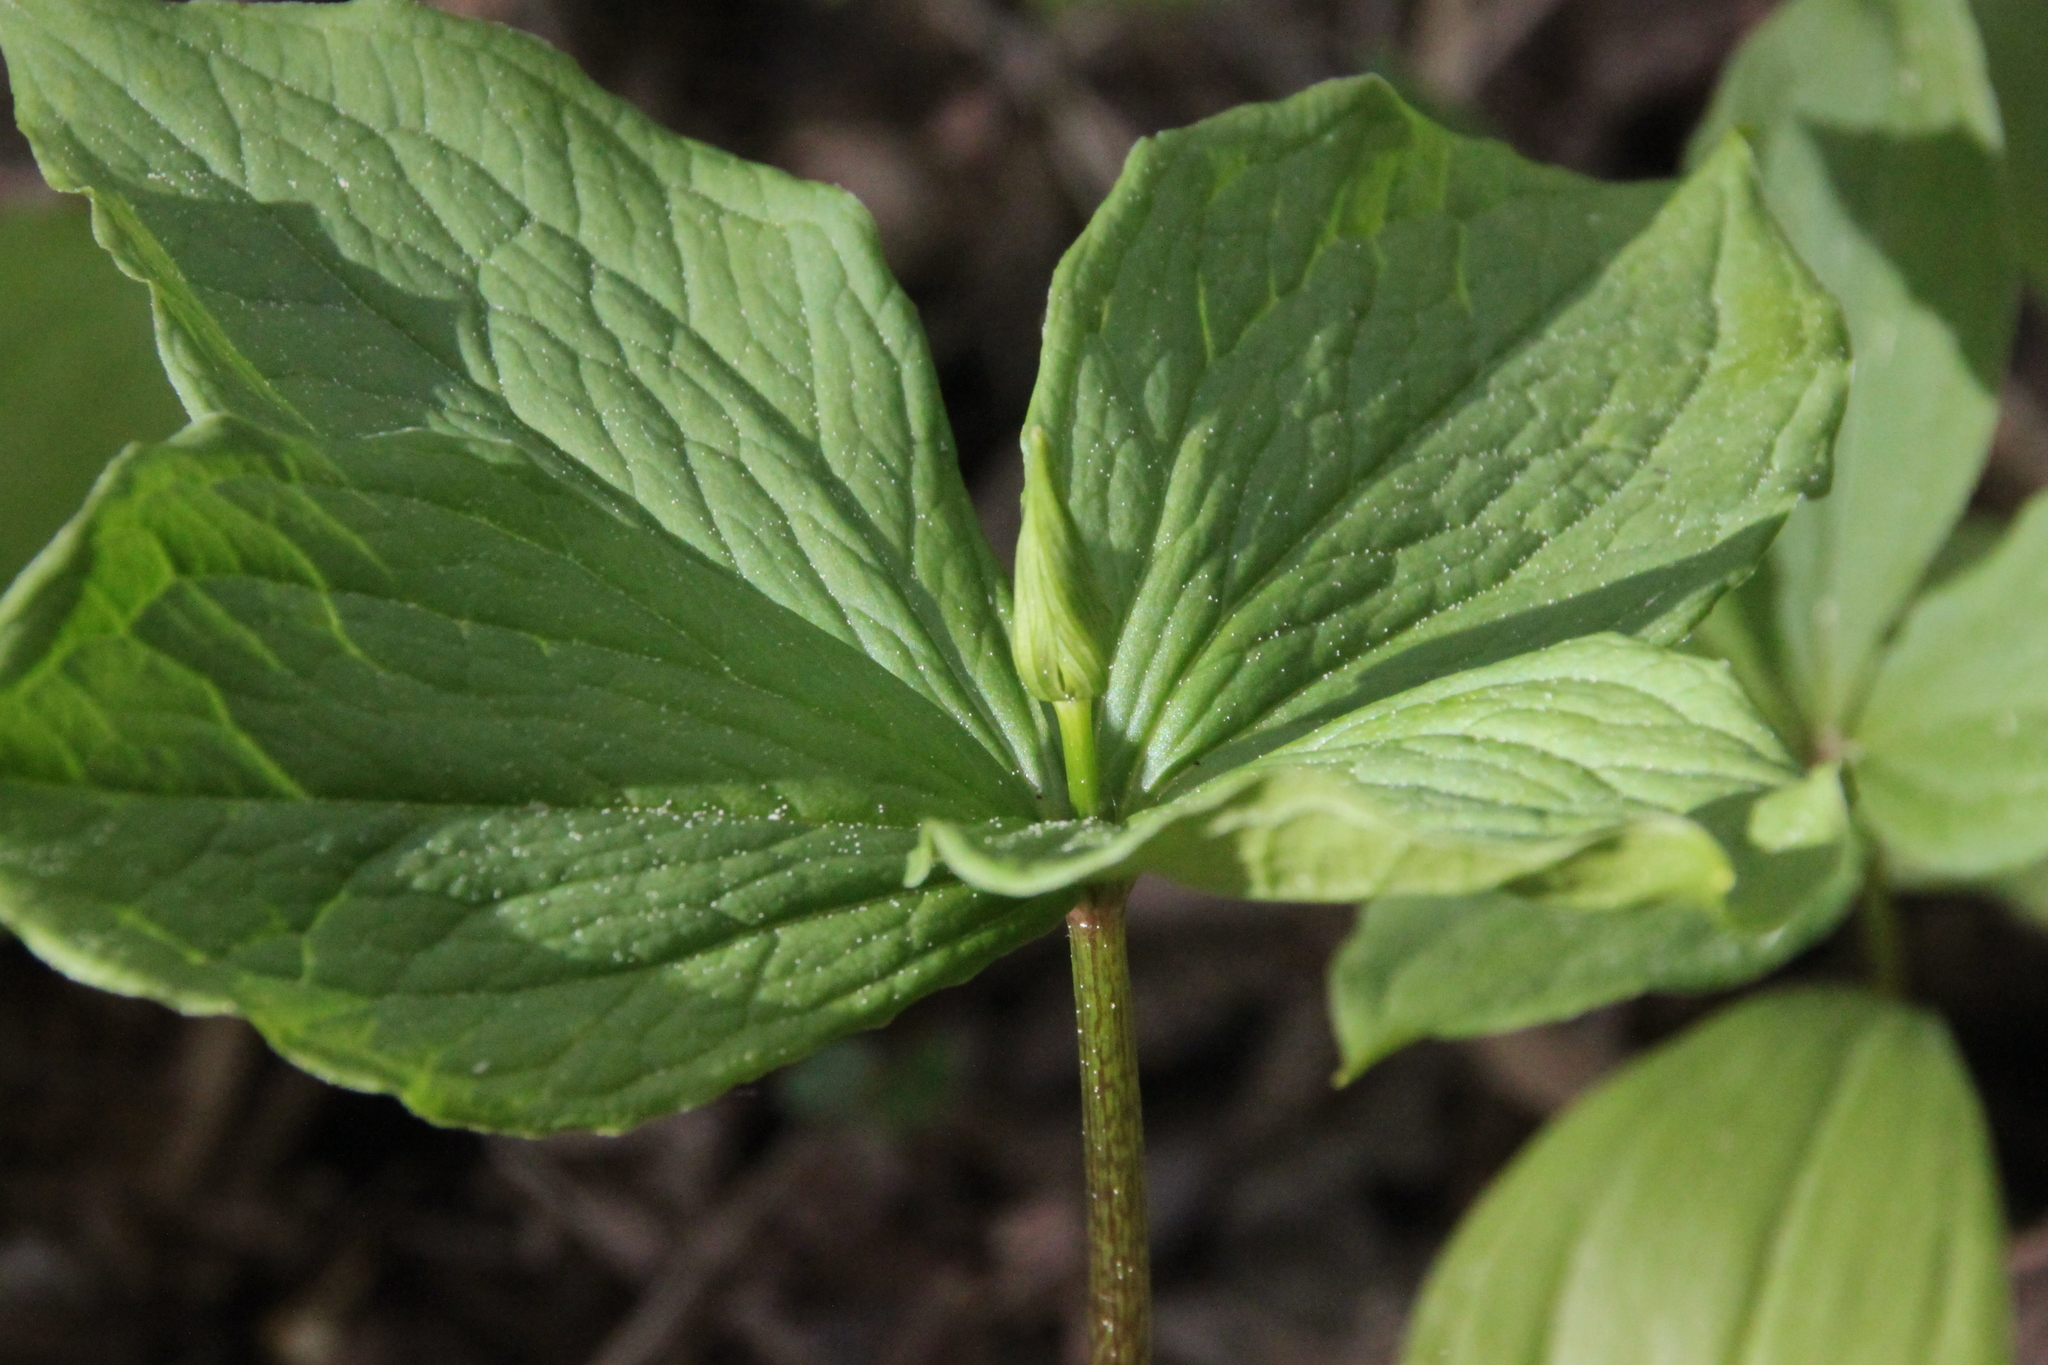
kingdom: Plantae
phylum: Tracheophyta
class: Liliopsida
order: Liliales
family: Melanthiaceae
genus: Paris
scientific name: Paris quadrifolia
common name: Herb-paris
